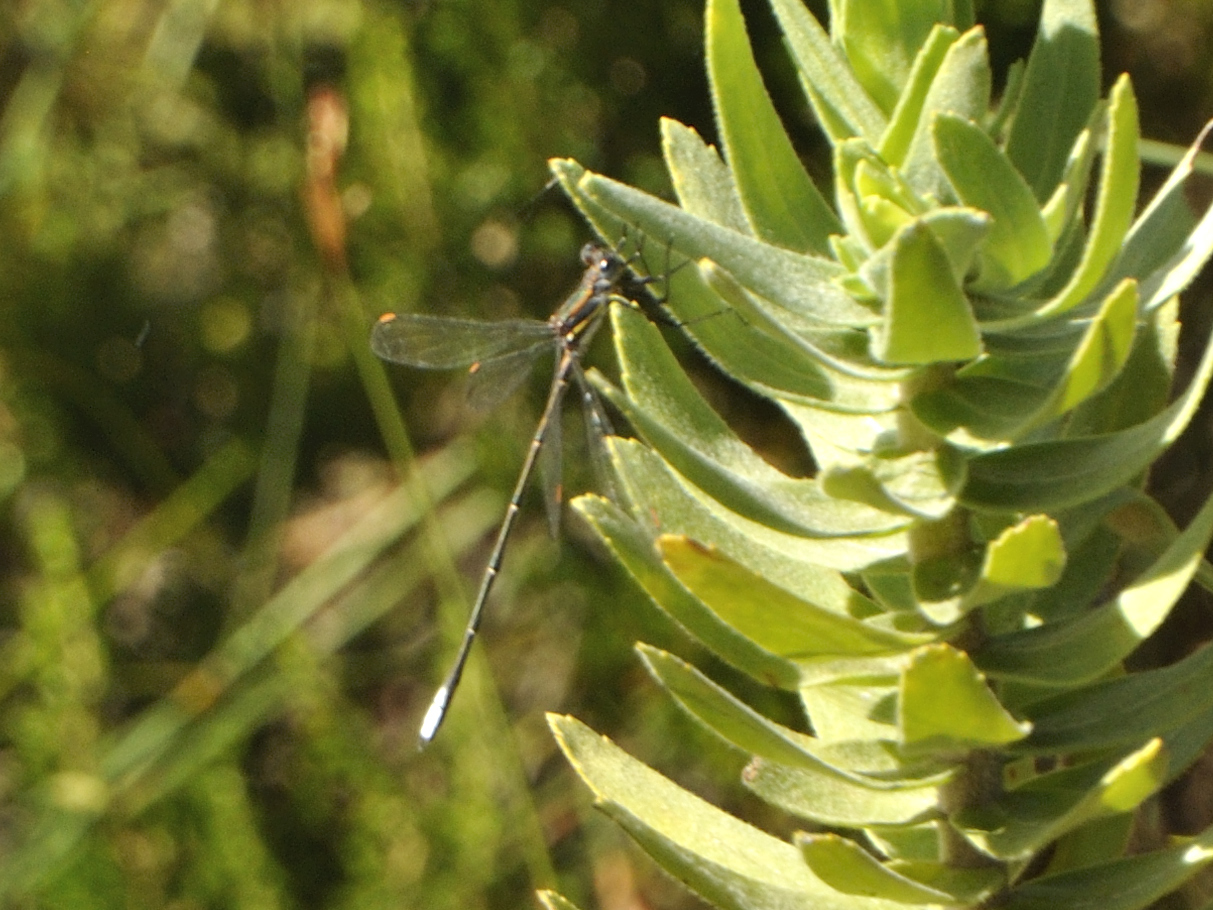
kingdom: Animalia
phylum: Arthropoda
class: Insecta
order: Odonata
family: Synlestidae
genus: Chlorolestes
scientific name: Chlorolestes conspicuus
